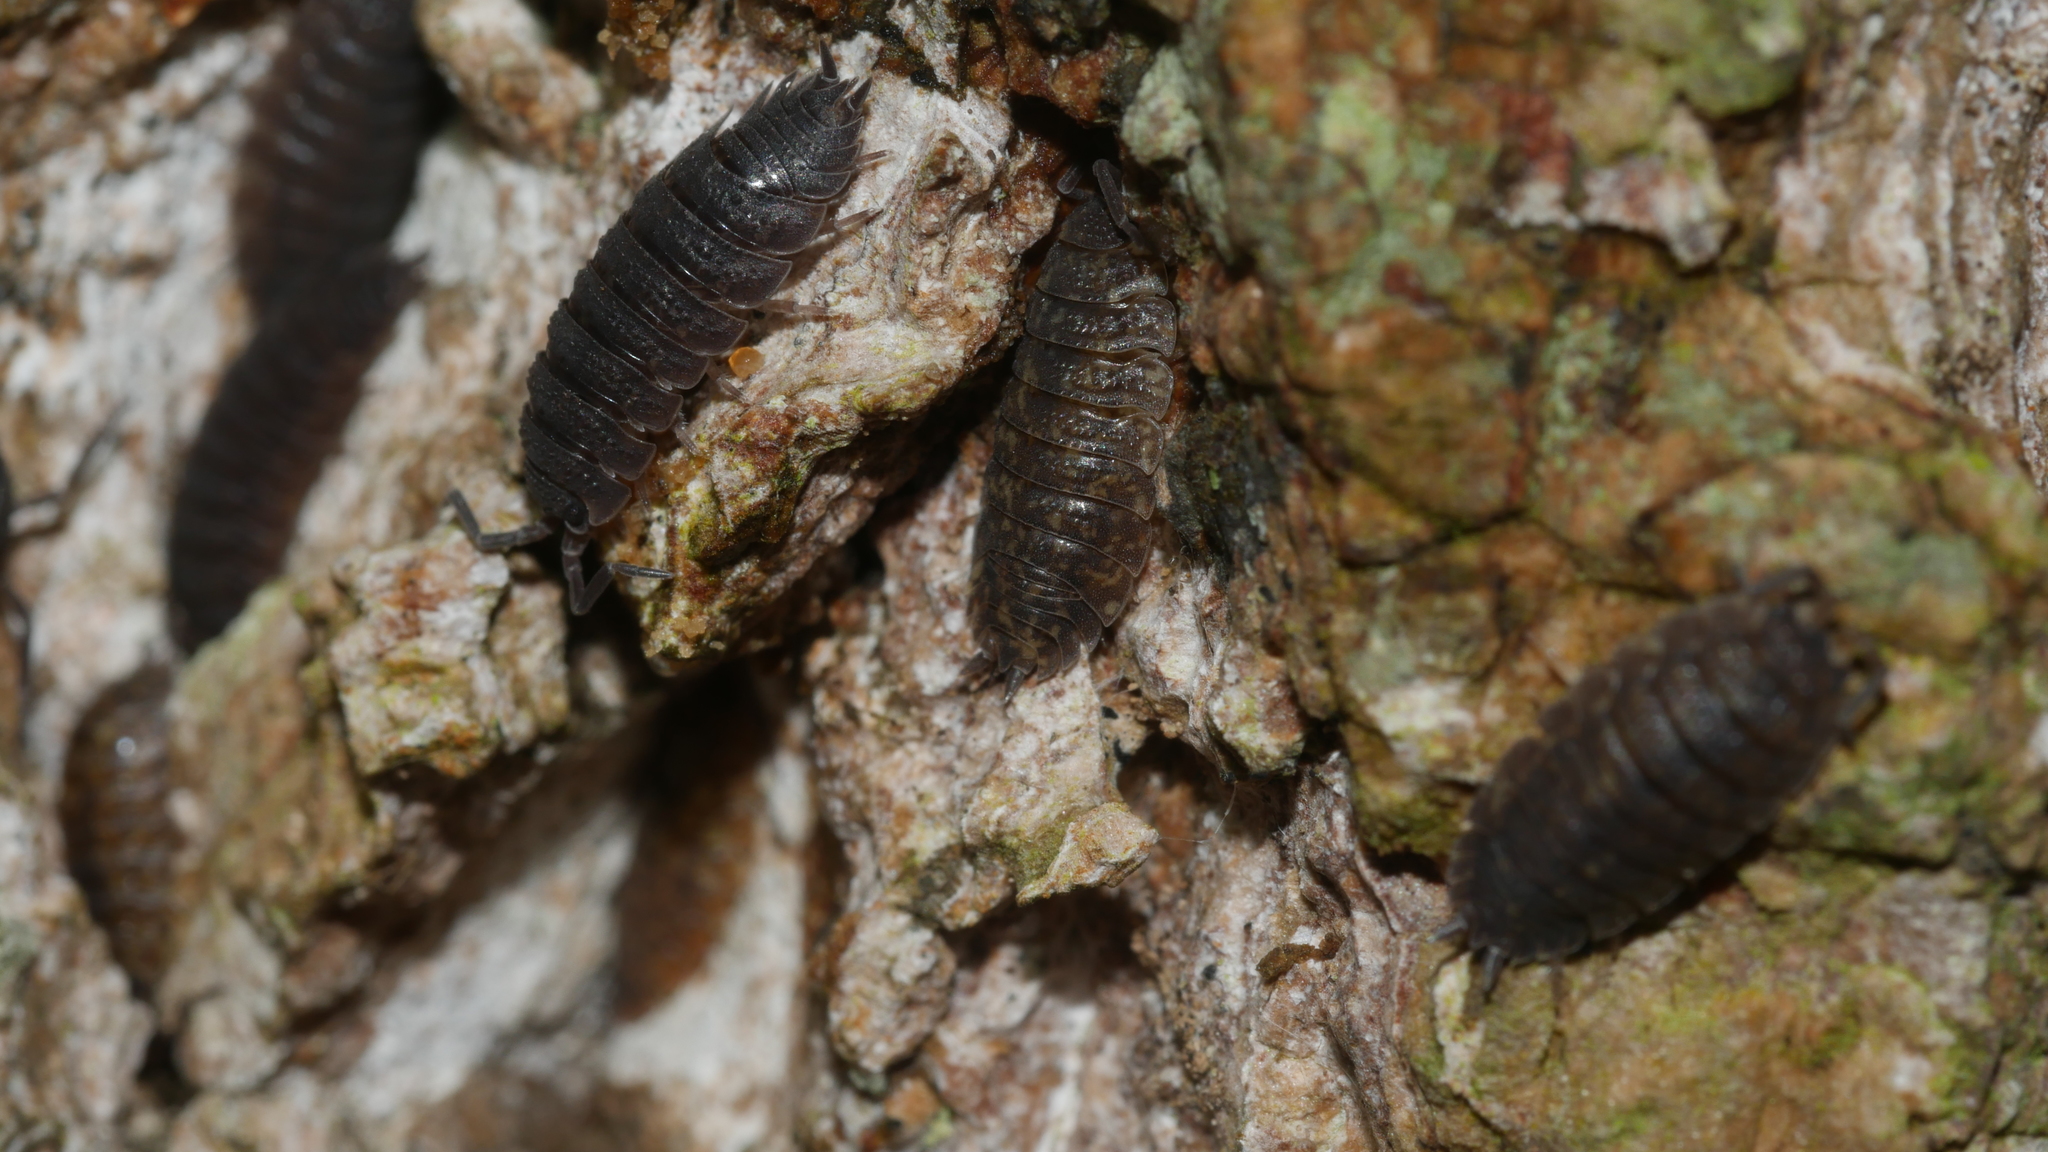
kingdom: Animalia
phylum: Arthropoda
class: Malacostraca
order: Isopoda
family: Porcellionidae
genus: Porcellio
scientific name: Porcellio scaber
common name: Common rough woodlouse
